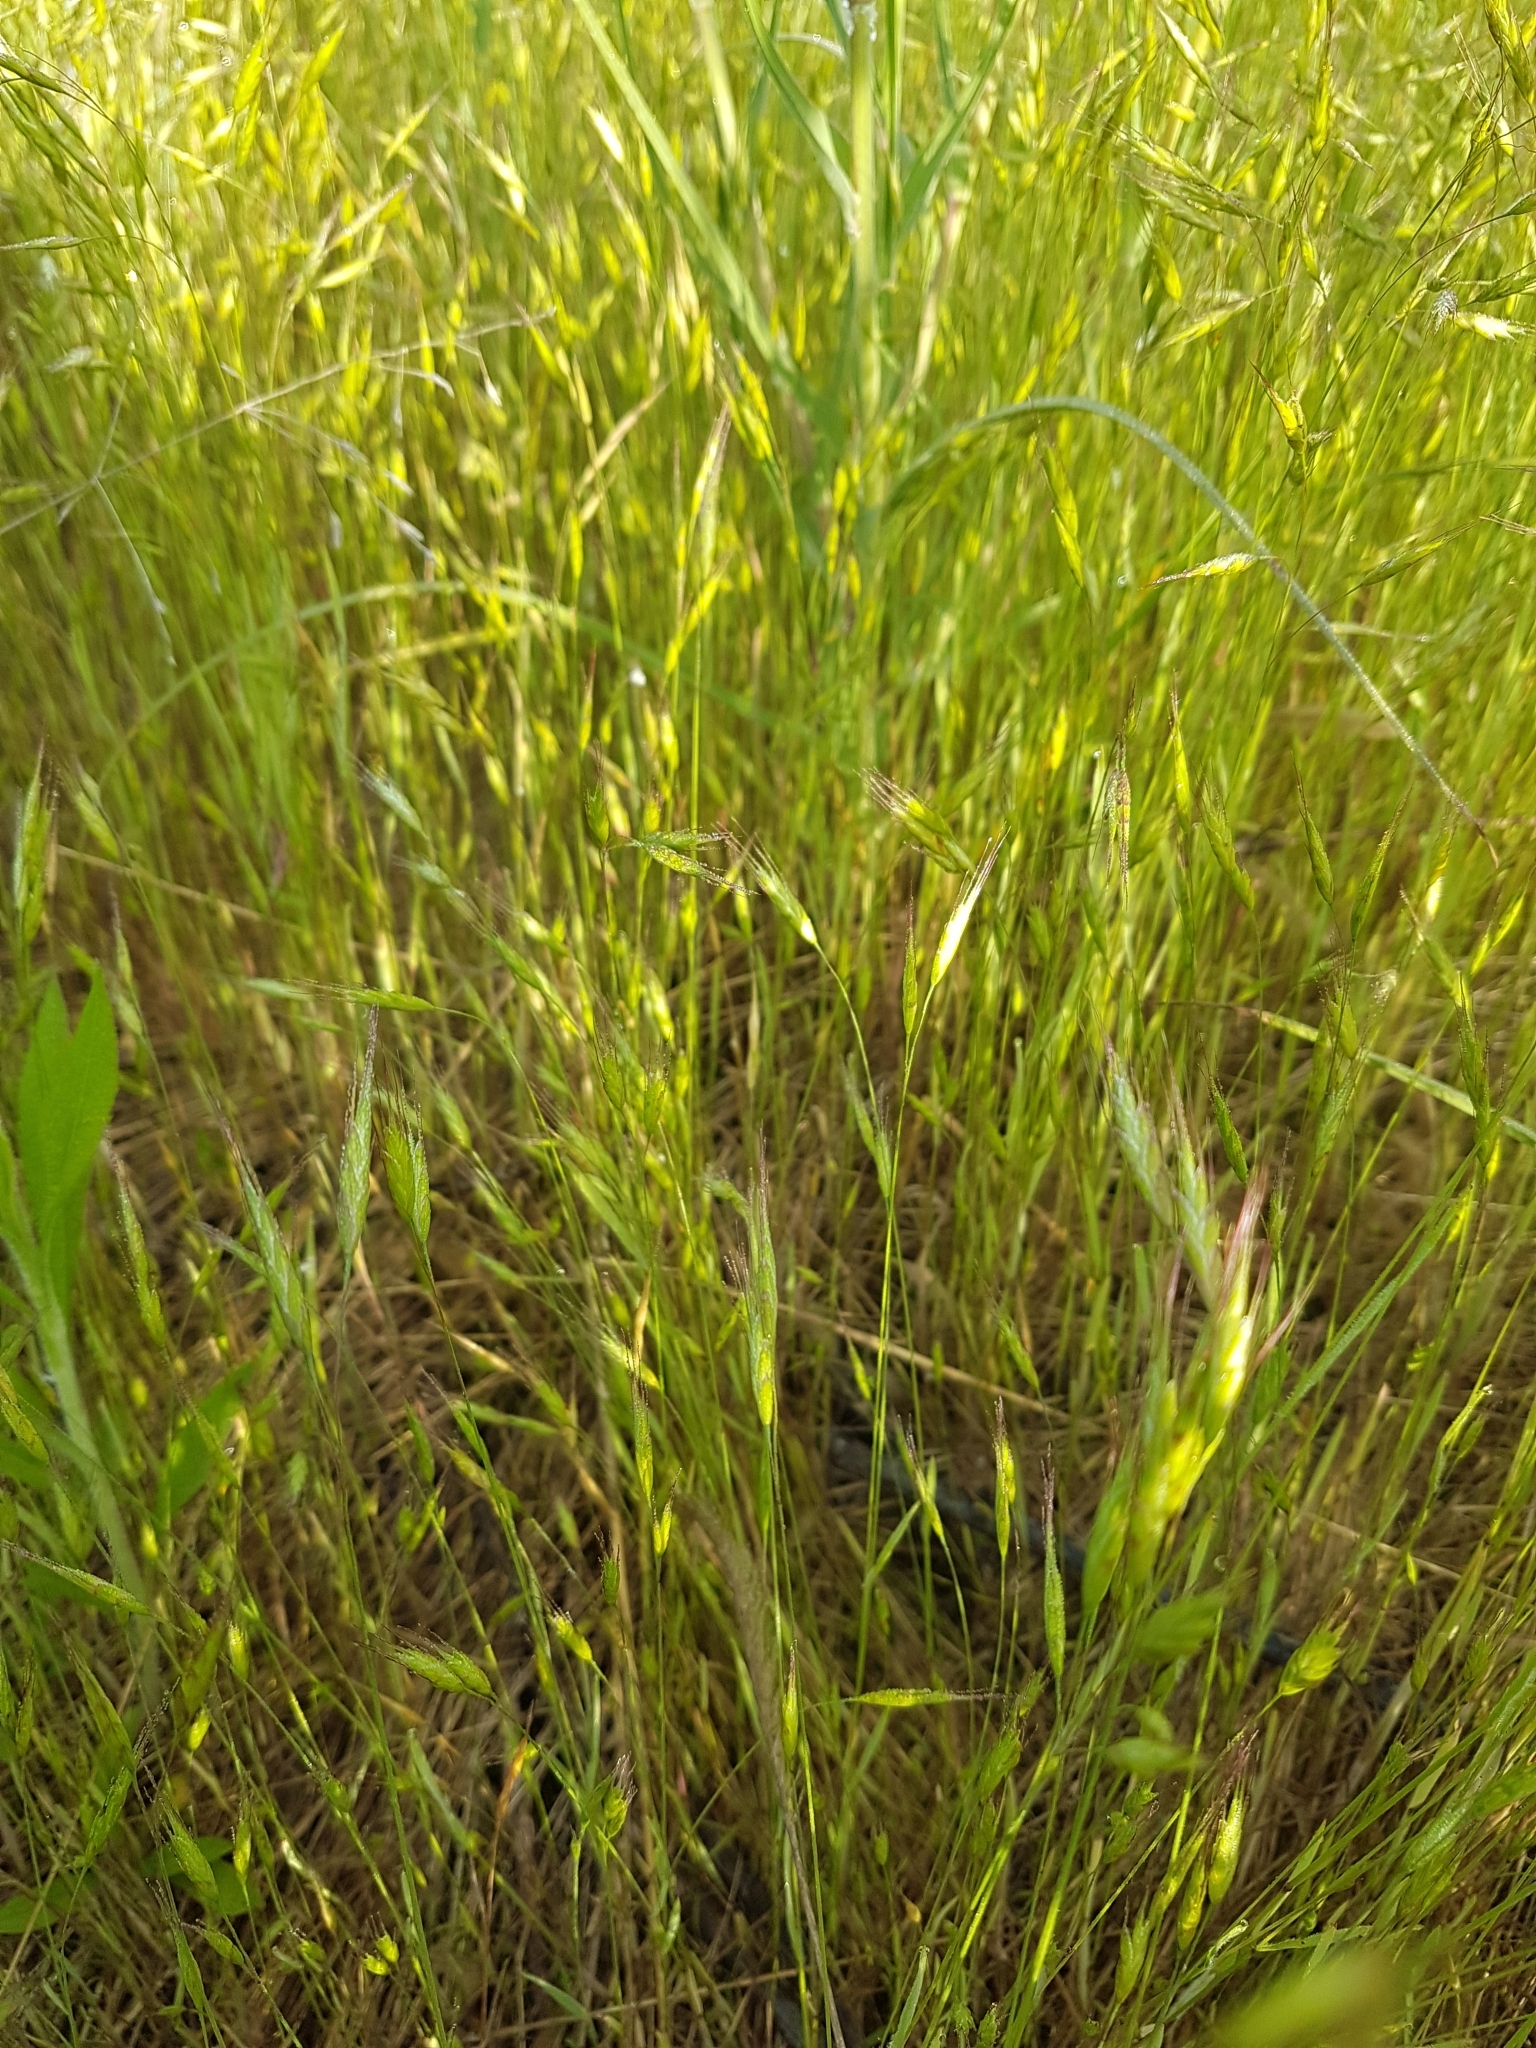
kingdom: Plantae
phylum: Tracheophyta
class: Liliopsida
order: Poales
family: Poaceae
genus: Bromus
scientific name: Bromus japonicus
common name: Japanese brome
